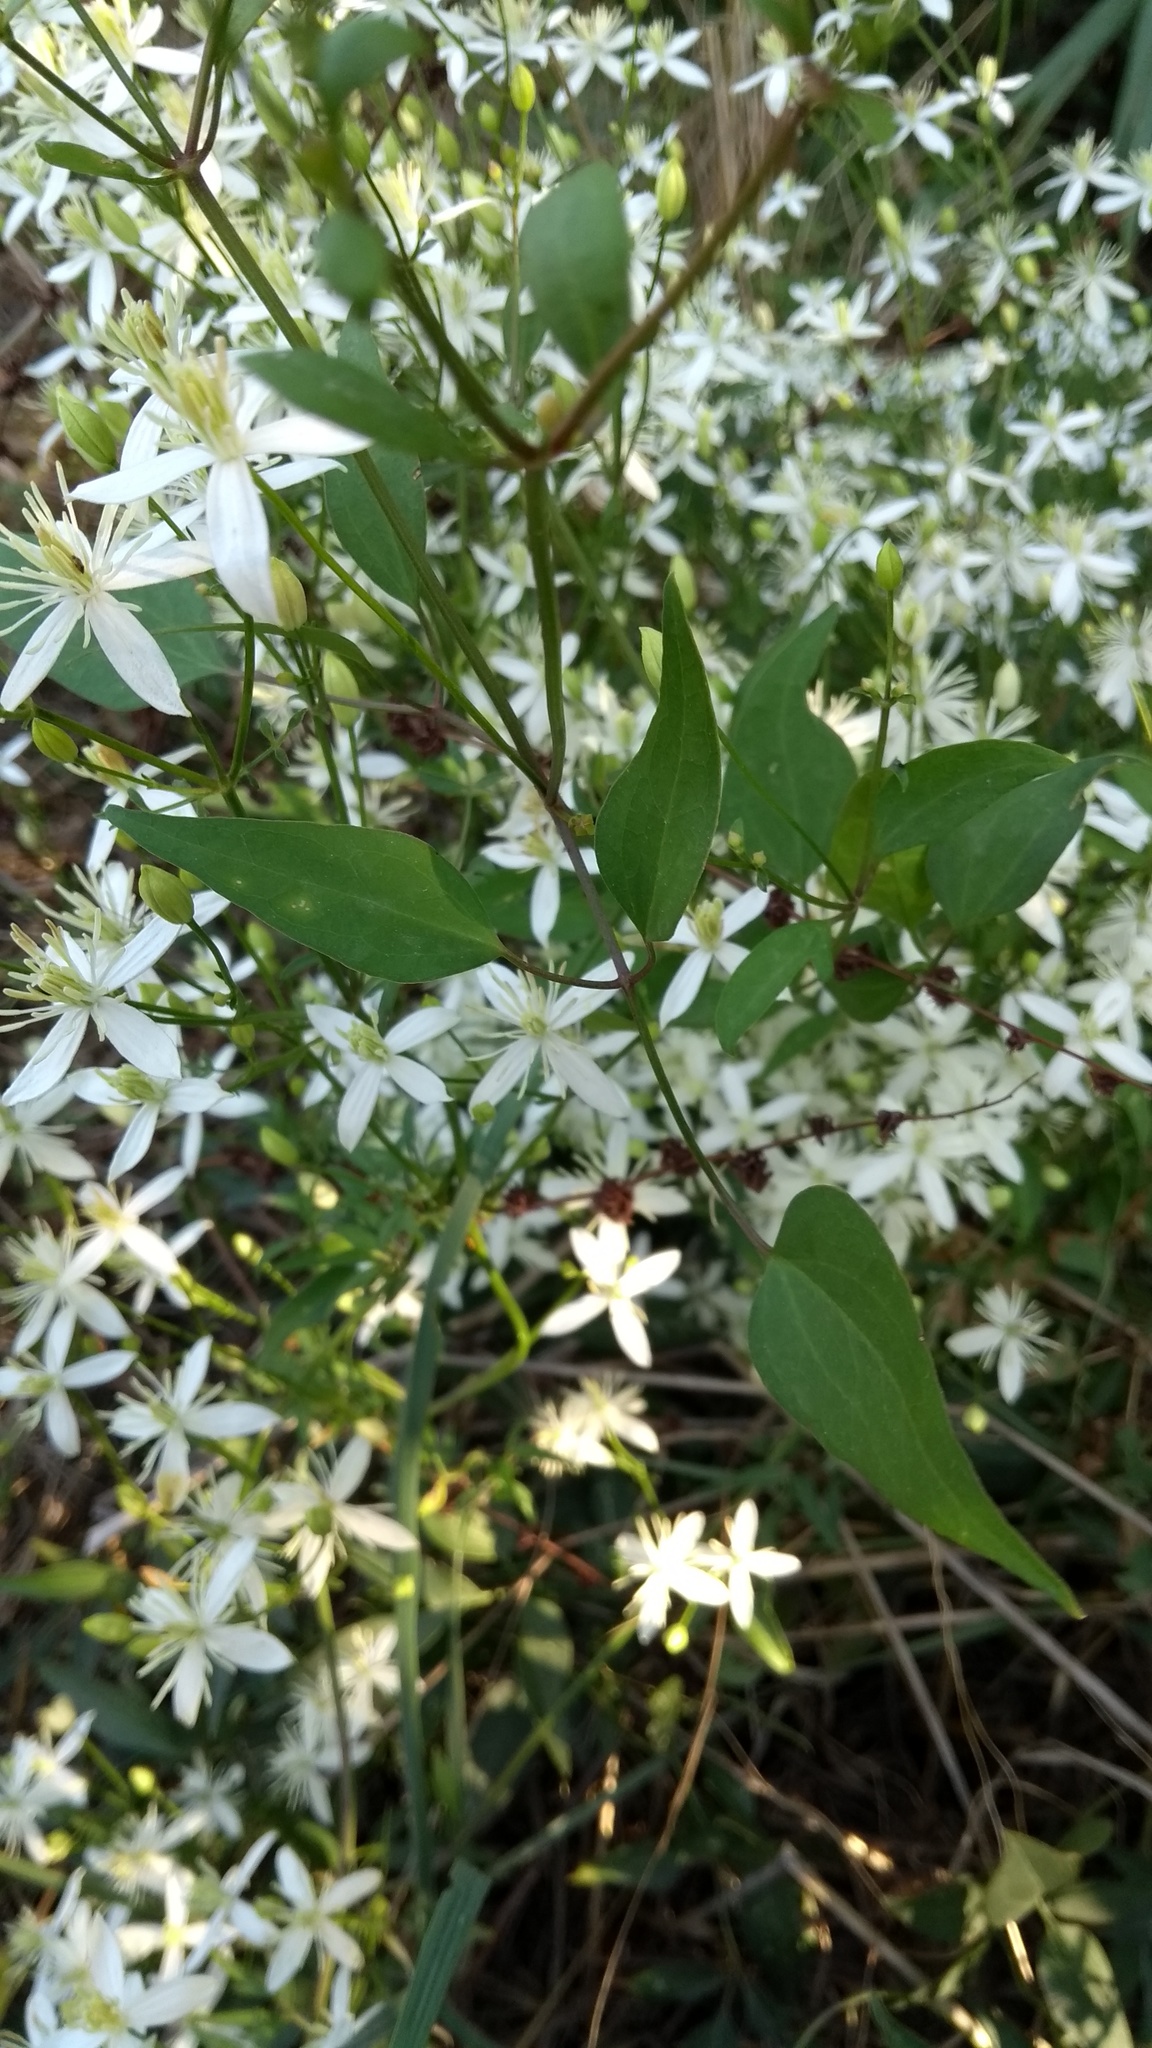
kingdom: Plantae
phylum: Tracheophyta
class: Magnoliopsida
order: Ranunculales
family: Ranunculaceae
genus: Clematis
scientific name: Clematis flammula
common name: Virgin's-bower
